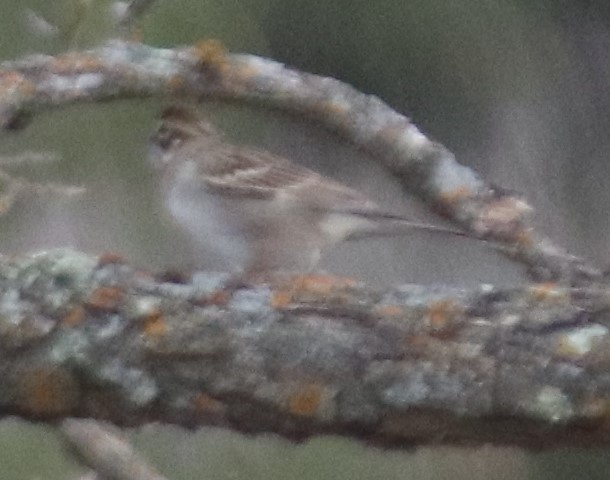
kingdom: Animalia
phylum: Chordata
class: Aves
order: Passeriformes
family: Passerellidae
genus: Chondestes
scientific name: Chondestes grammacus
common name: Lark sparrow
